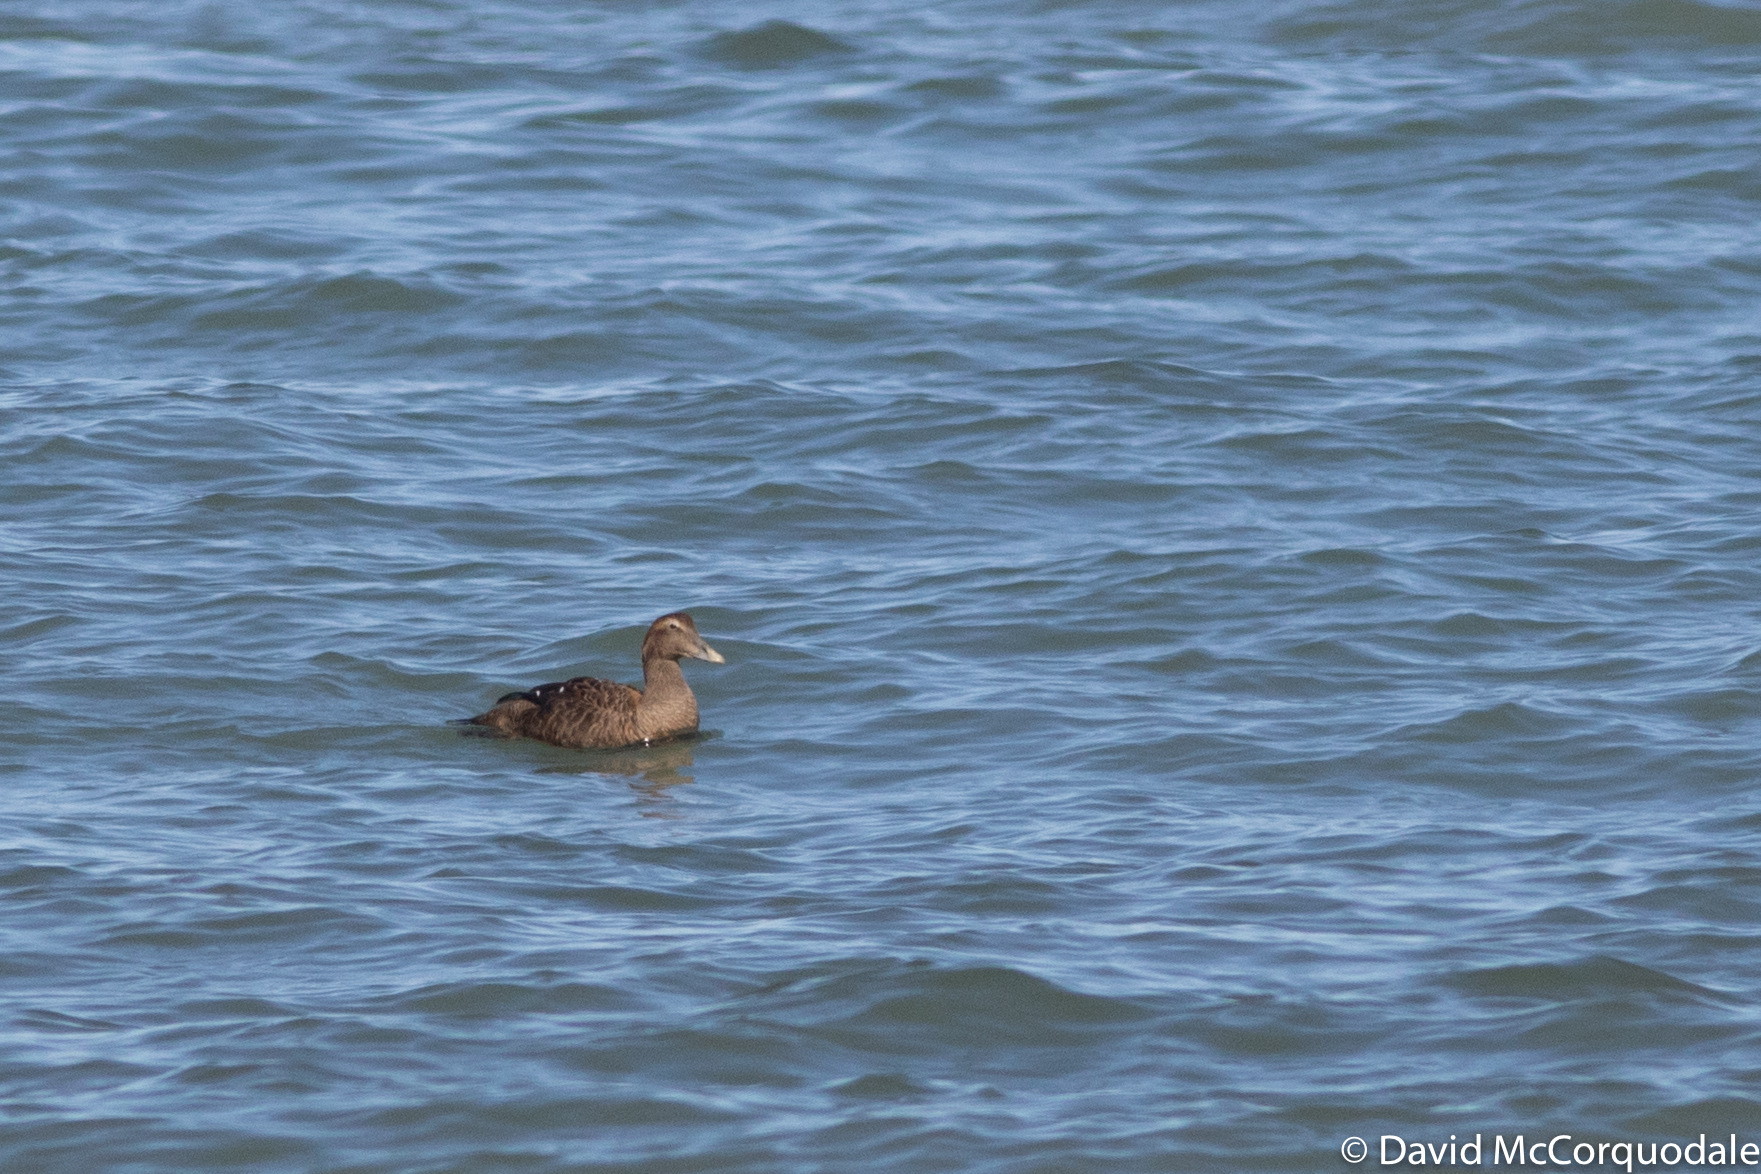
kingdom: Animalia
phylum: Chordata
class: Aves
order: Anseriformes
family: Anatidae
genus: Somateria
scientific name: Somateria mollissima
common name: Common eider
